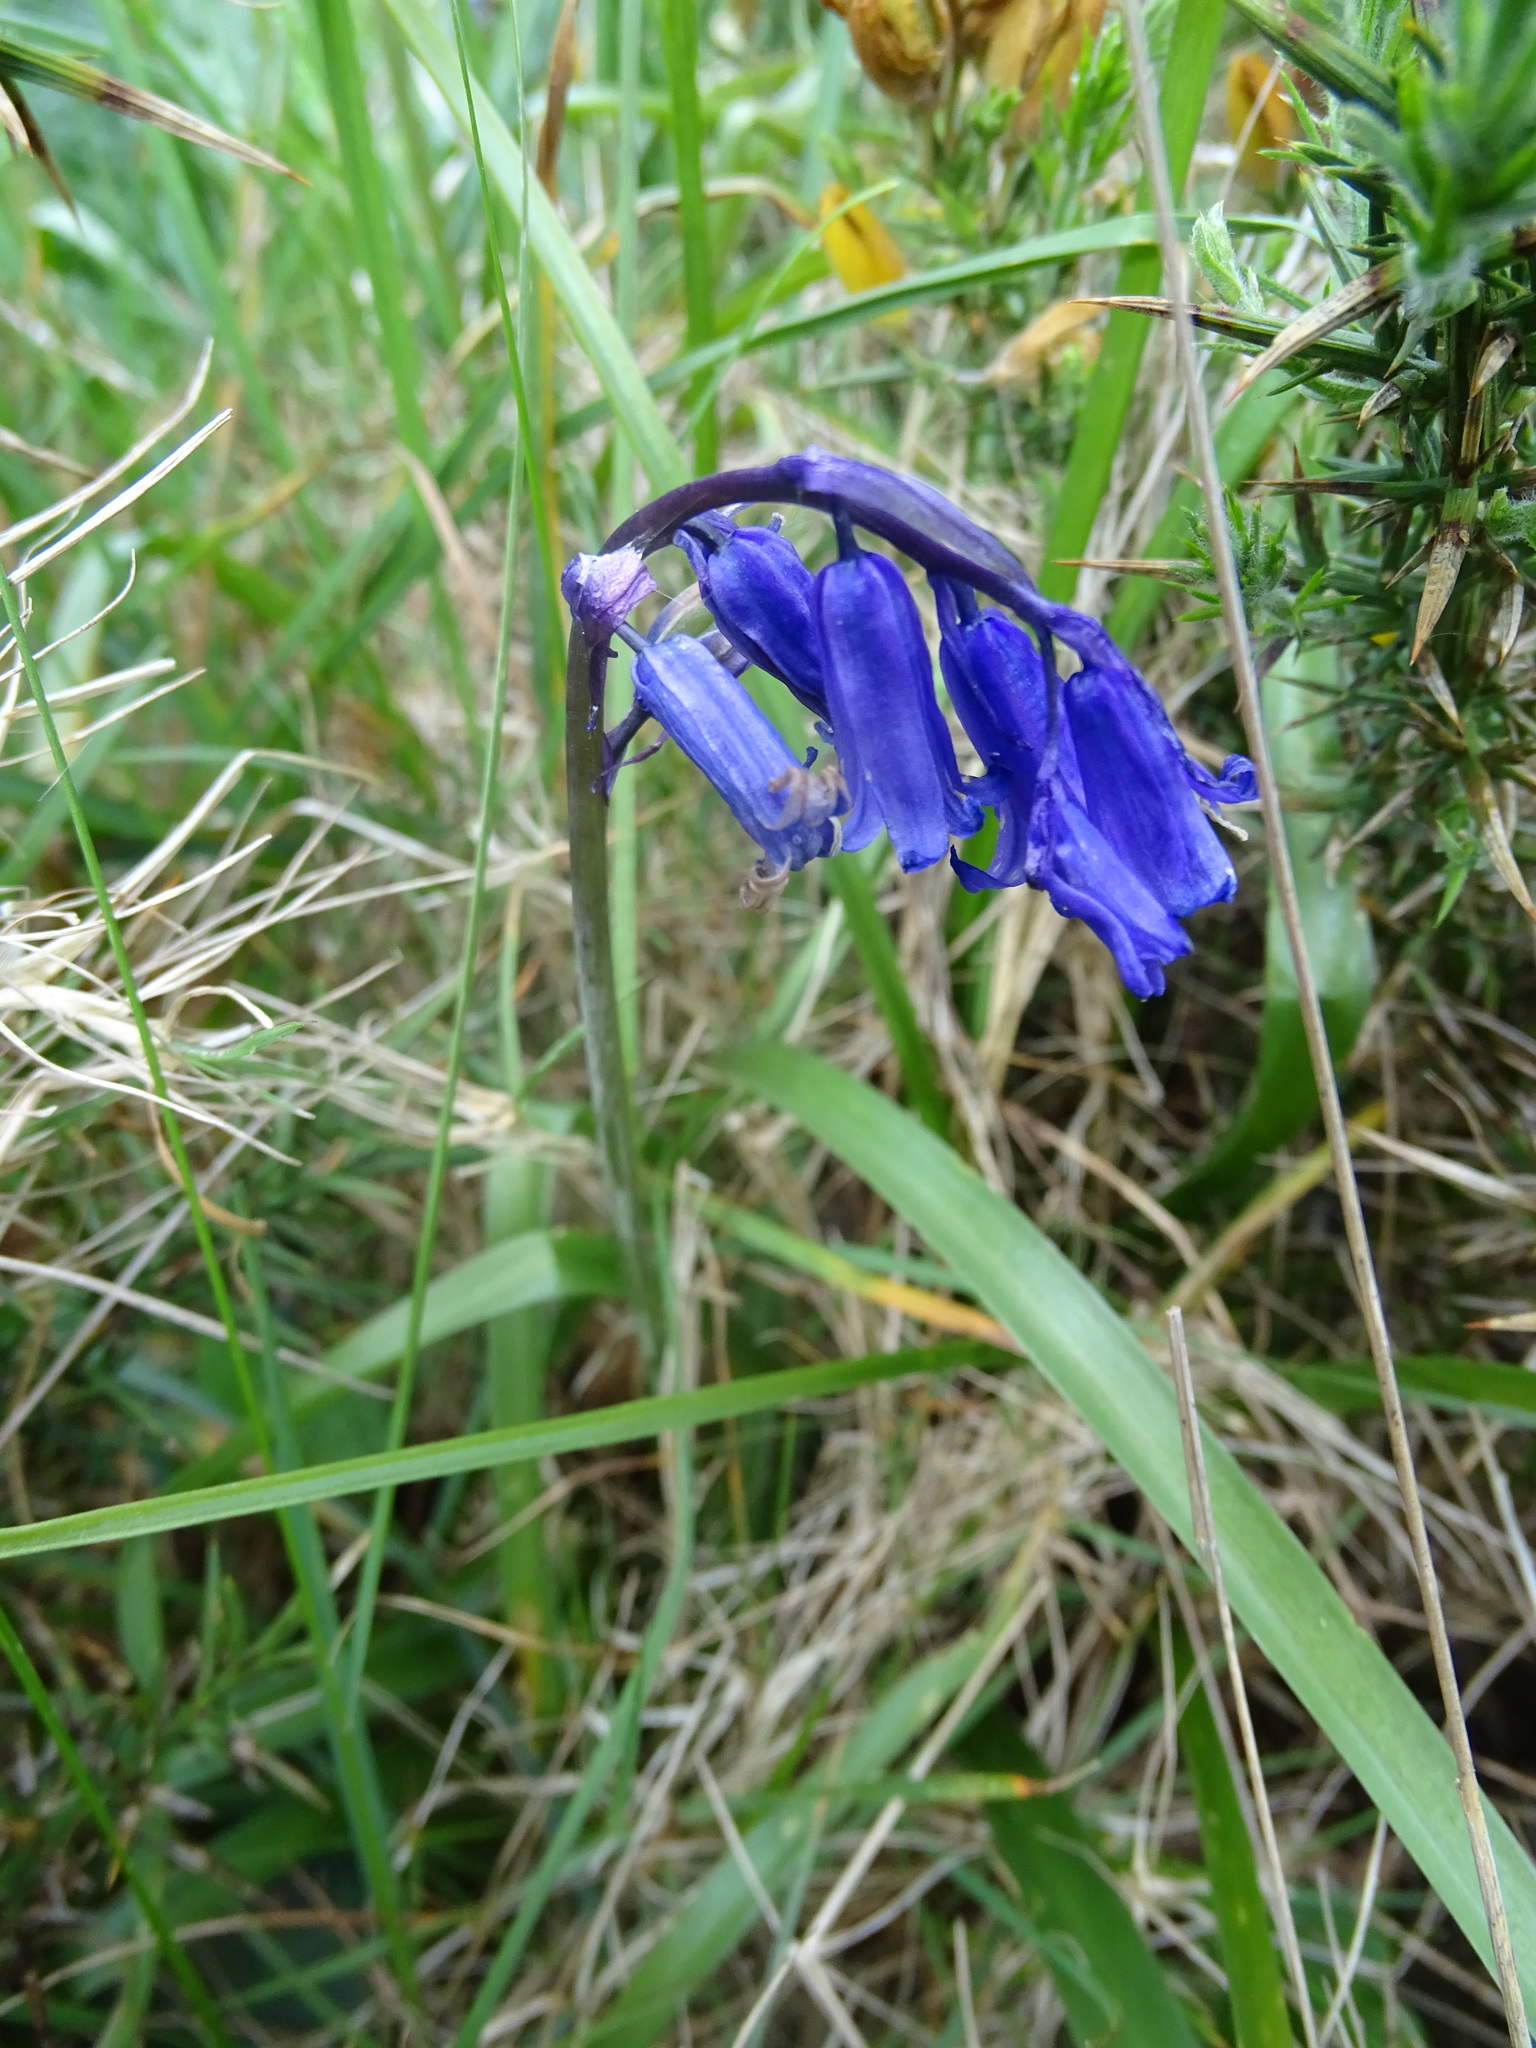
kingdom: Plantae
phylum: Tracheophyta
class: Liliopsida
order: Asparagales
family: Asparagaceae
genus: Hyacinthoides
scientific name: Hyacinthoides non-scripta
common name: Bluebell
